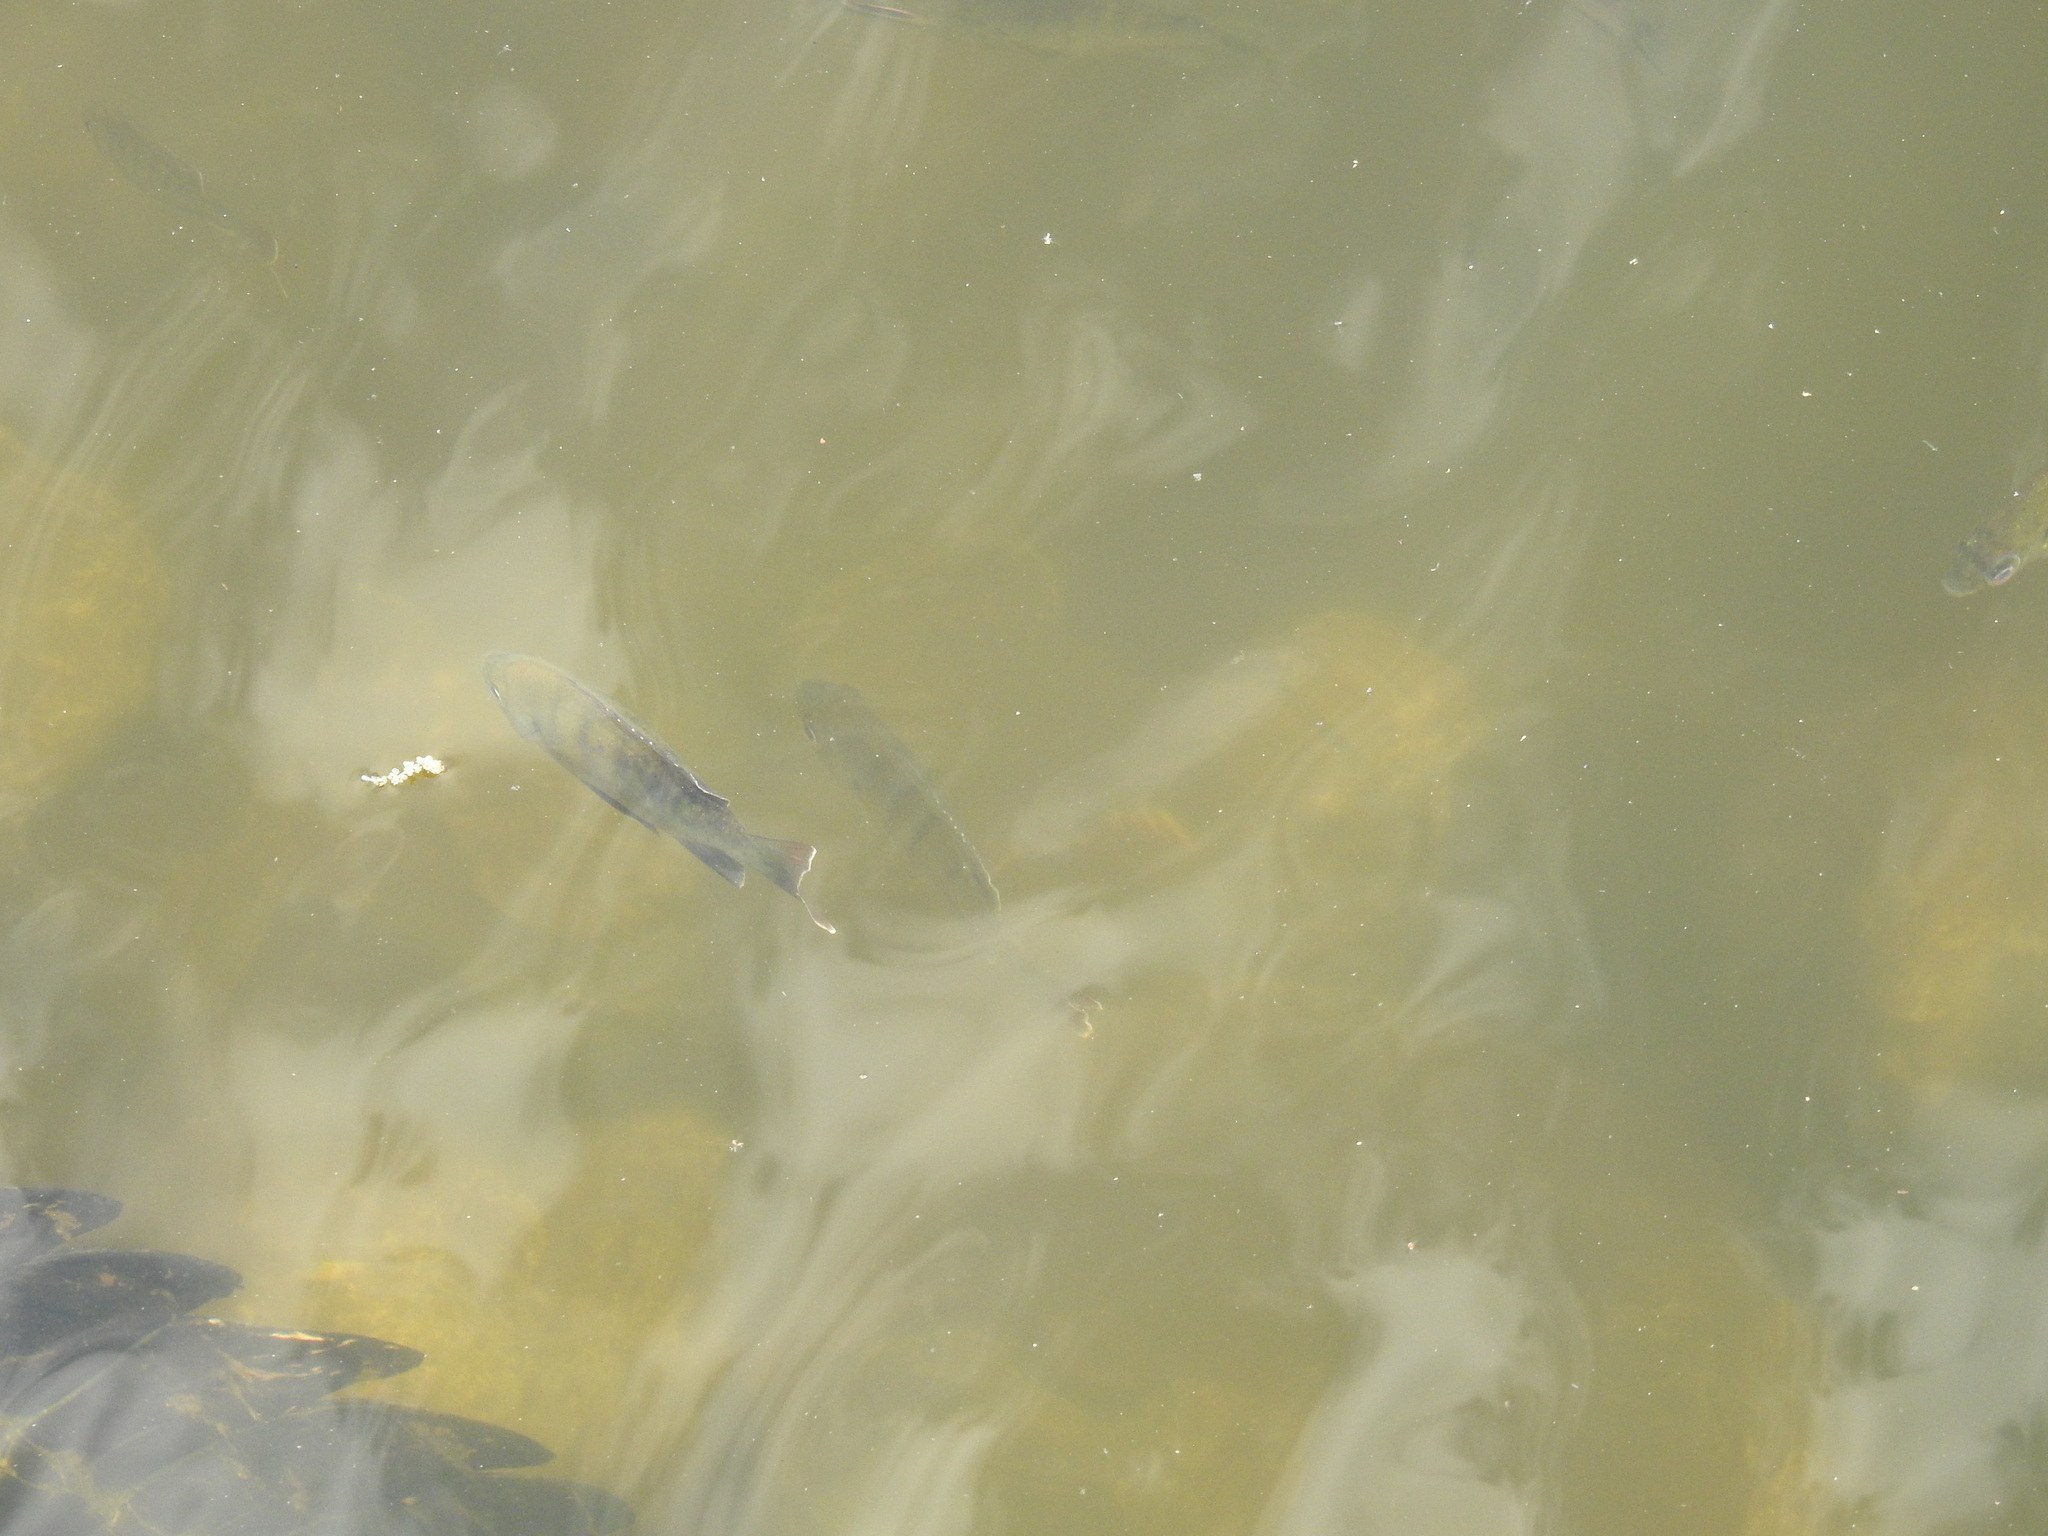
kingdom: Animalia
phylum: Chordata
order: Perciformes
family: Centrarchidae
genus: Lepomis
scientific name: Lepomis macrochirus
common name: Bluegill
